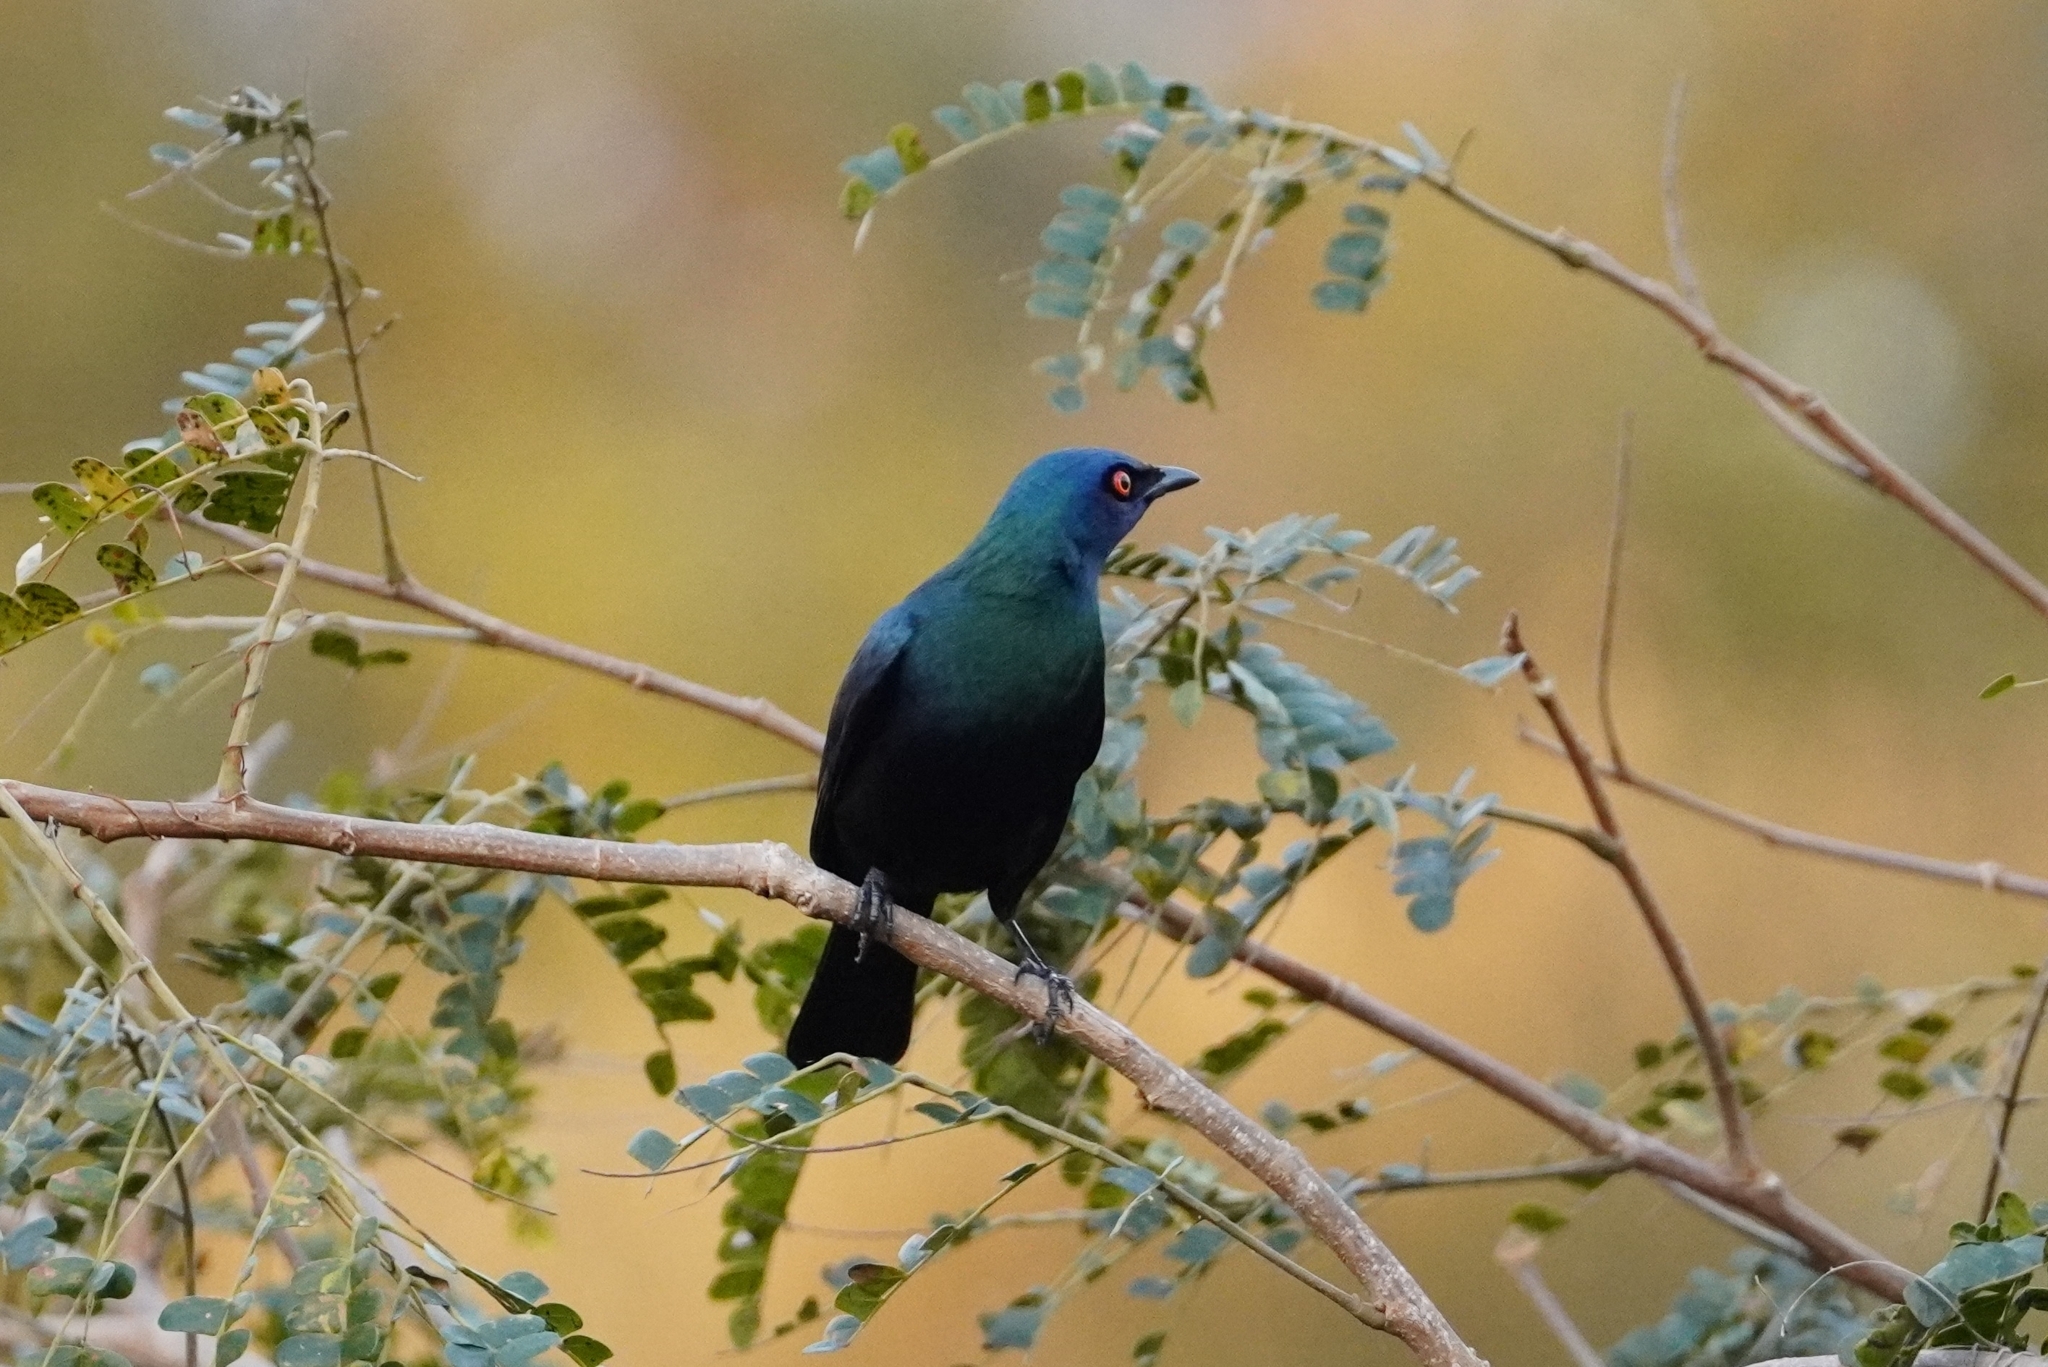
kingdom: Animalia
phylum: Chordata
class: Aves
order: Passeriformes
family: Sturnidae
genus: Notopholia
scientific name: Notopholia corrusca
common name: Black-bellied starling
